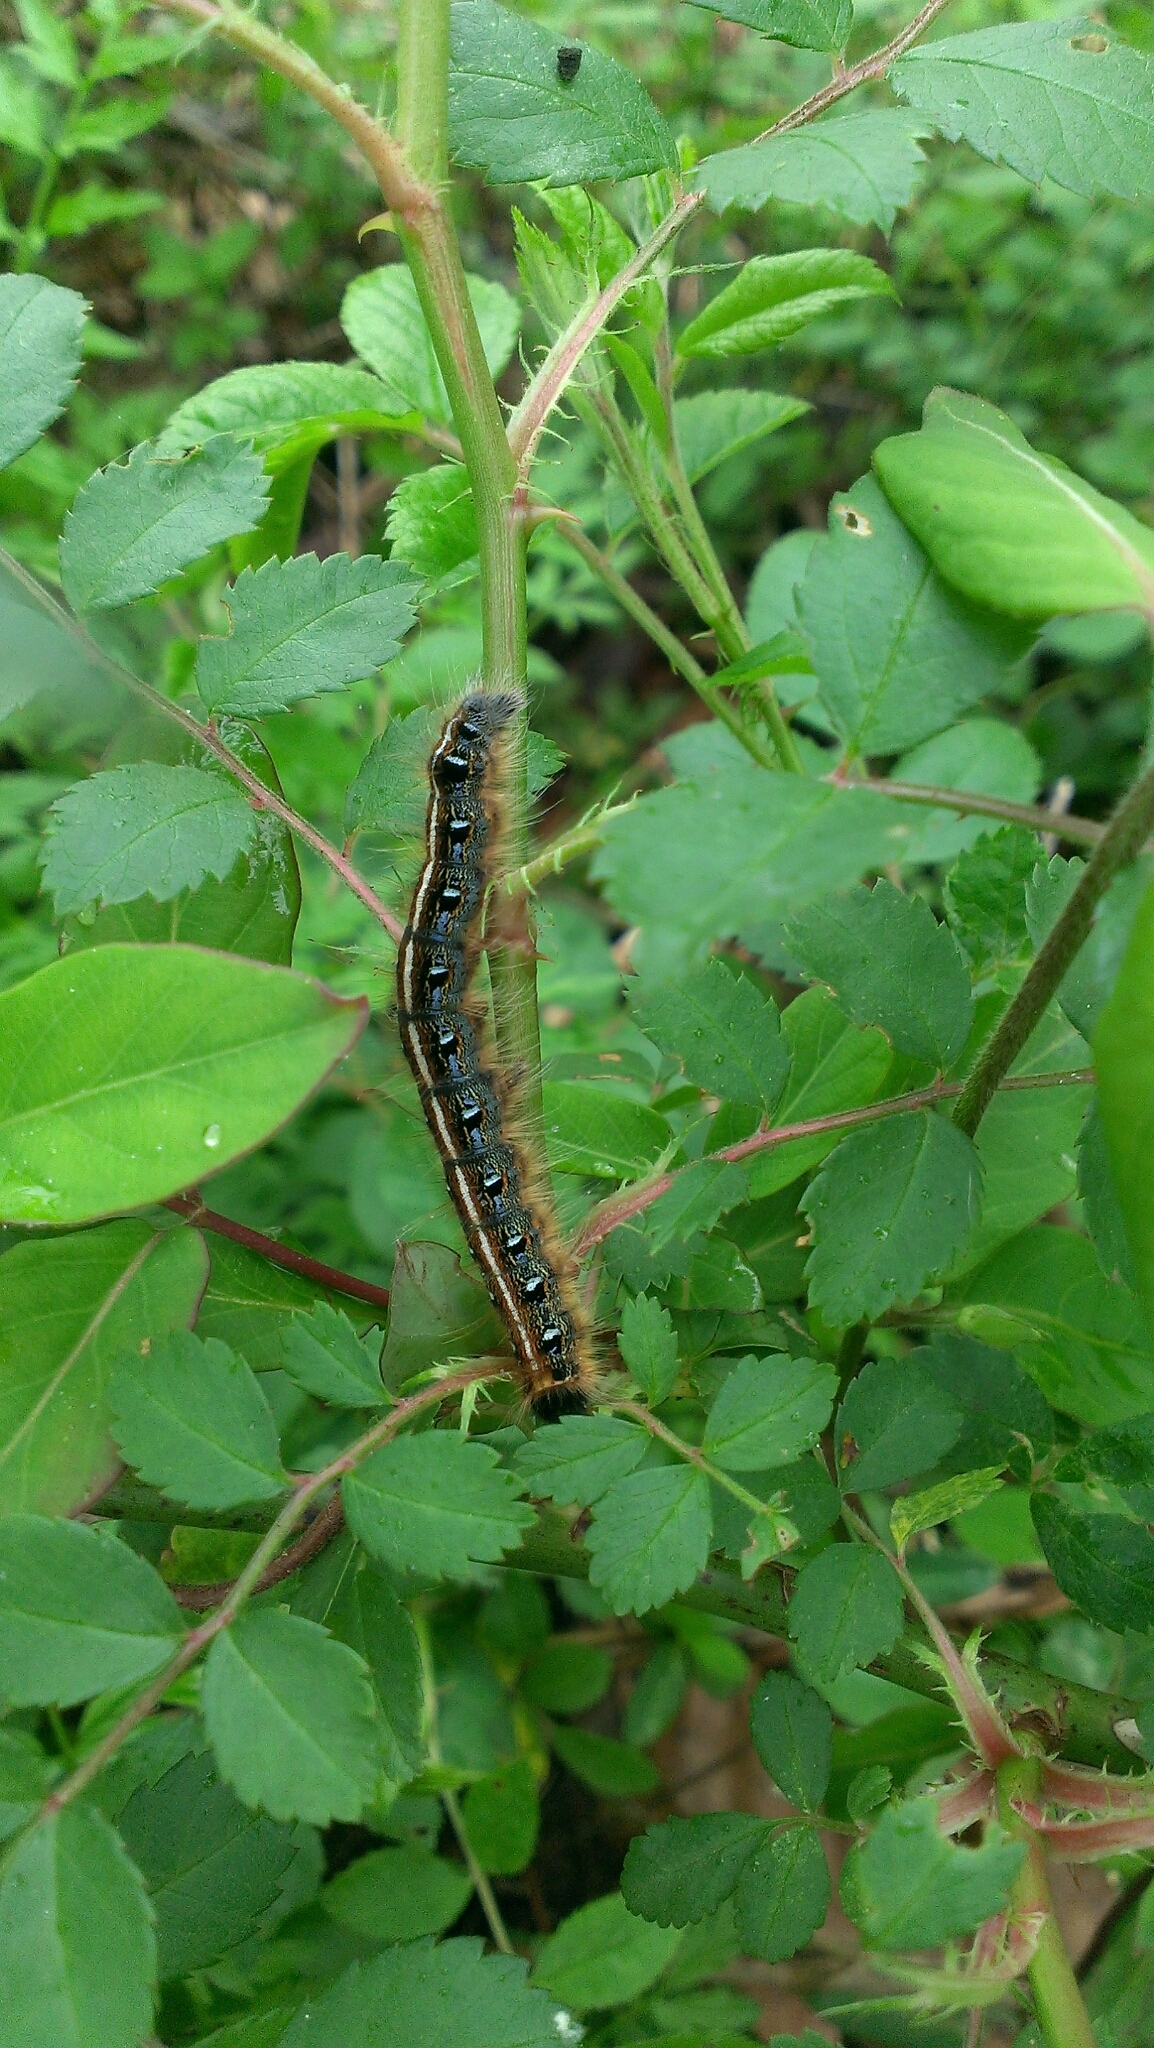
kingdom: Animalia
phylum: Arthropoda
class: Insecta
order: Lepidoptera
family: Lasiocampidae
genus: Malacosoma
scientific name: Malacosoma americana
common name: Eastern tent caterpillar moth
